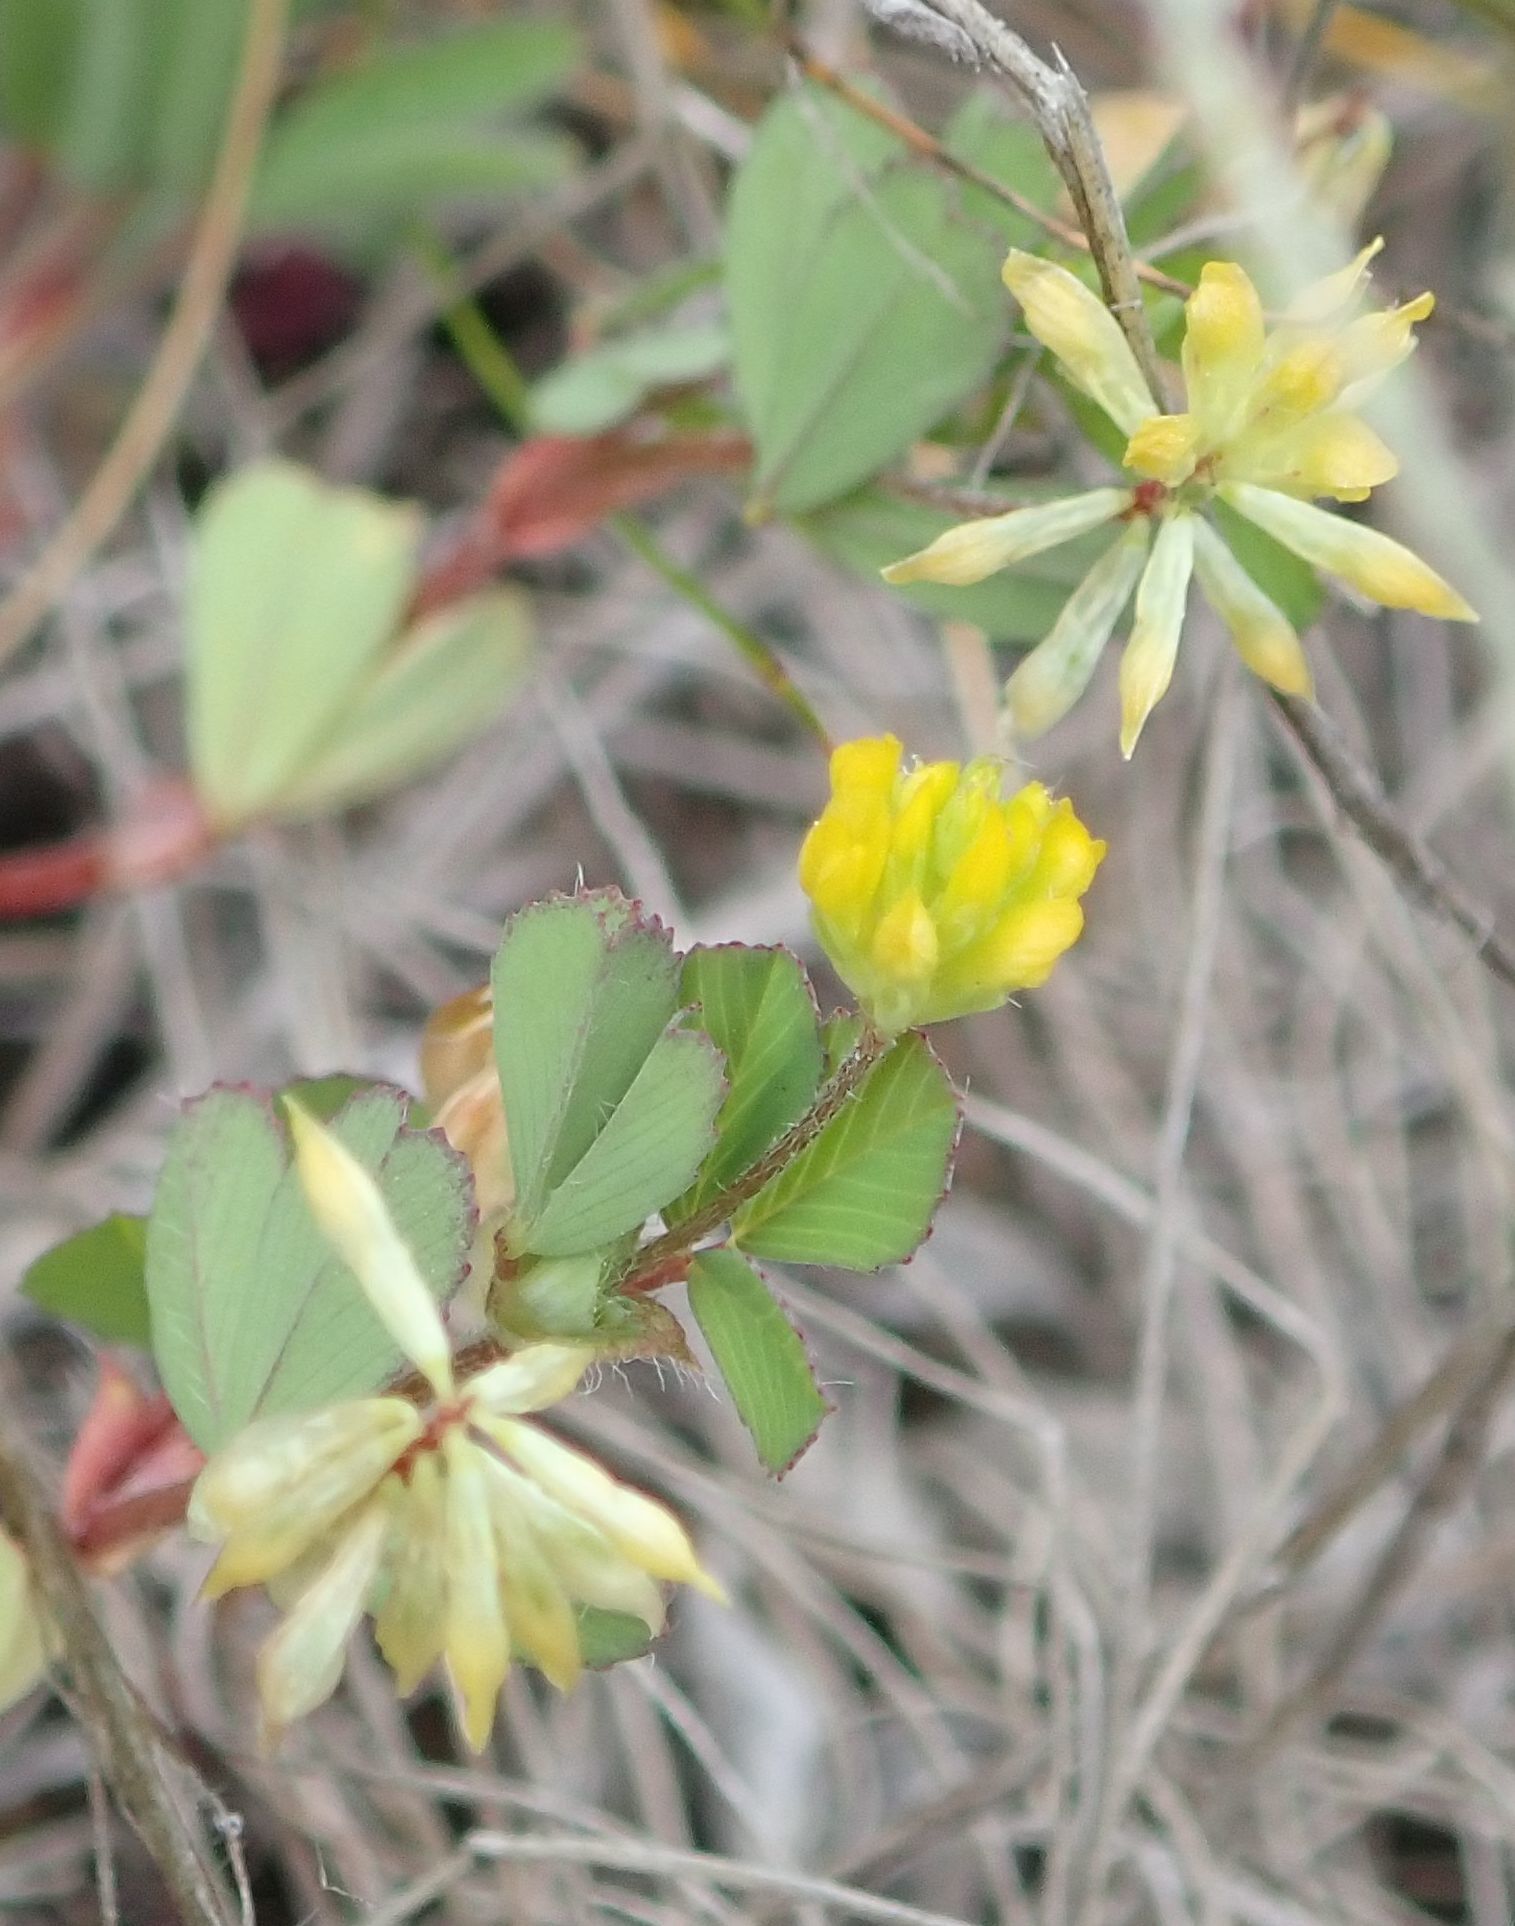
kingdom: Plantae
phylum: Tracheophyta
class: Magnoliopsida
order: Fabales
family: Fabaceae
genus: Trifolium
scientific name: Trifolium dubium
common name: Suckling clover
